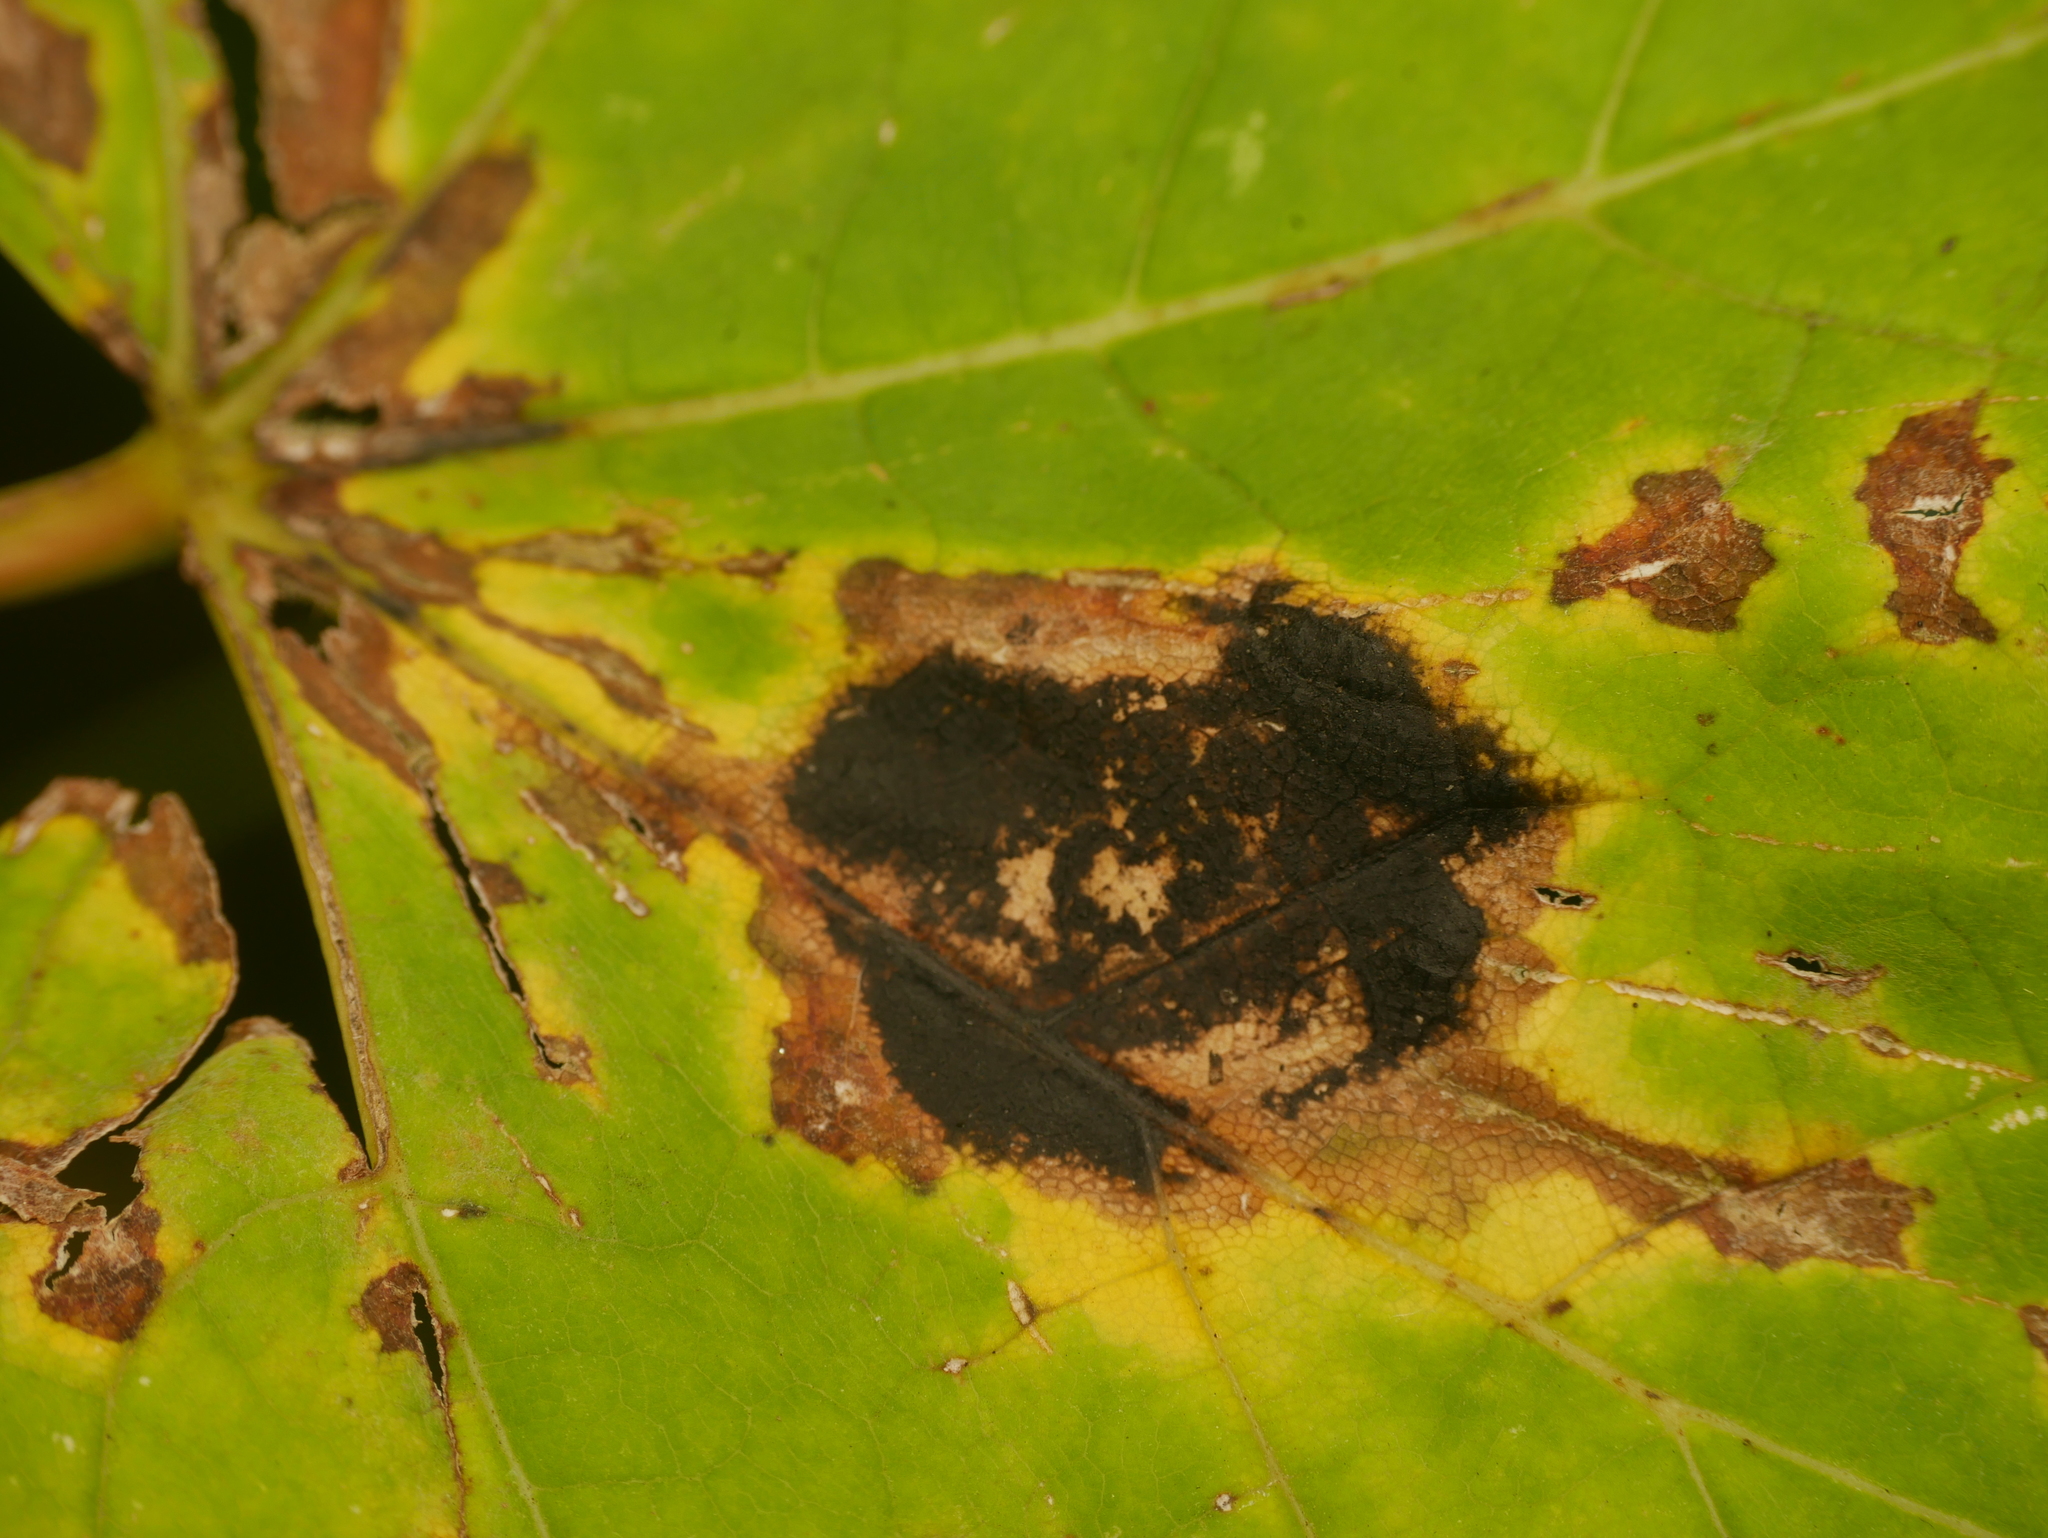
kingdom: Fungi
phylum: Ascomycota
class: Leotiomycetes
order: Rhytismatales
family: Rhytismataceae
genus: Rhytisma
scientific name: Rhytisma acerinum
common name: European tar spot
